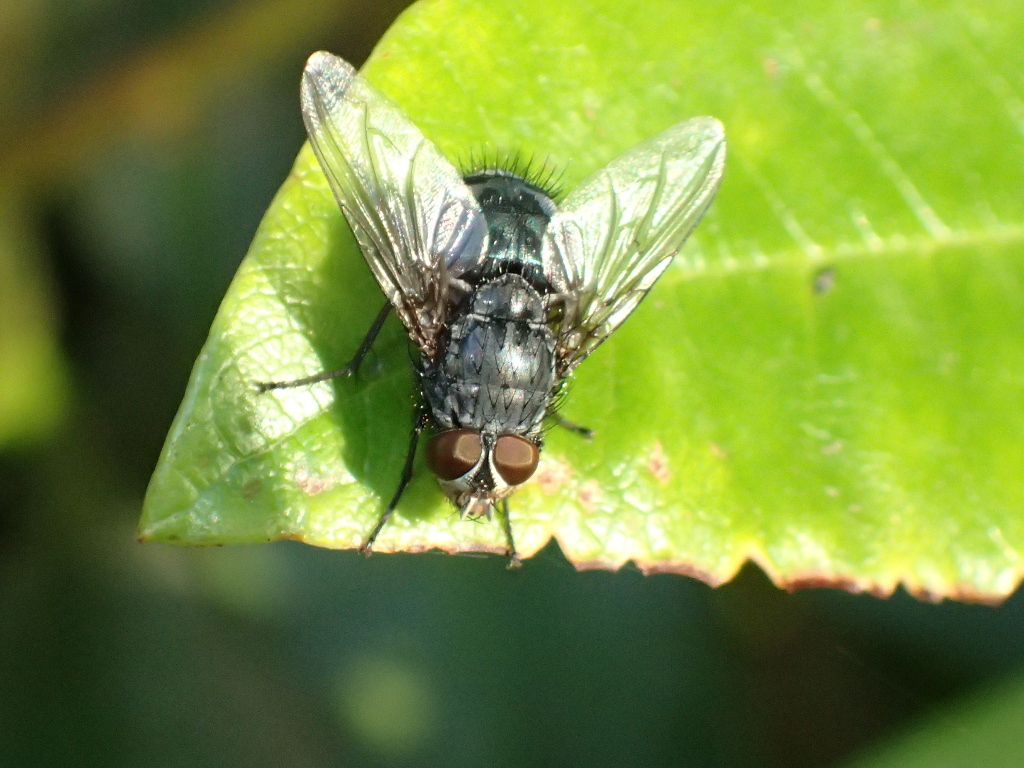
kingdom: Animalia
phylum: Arthropoda
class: Insecta
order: Diptera
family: Calliphoridae
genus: Calliphora
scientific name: Calliphora vicina
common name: Common blow flie
